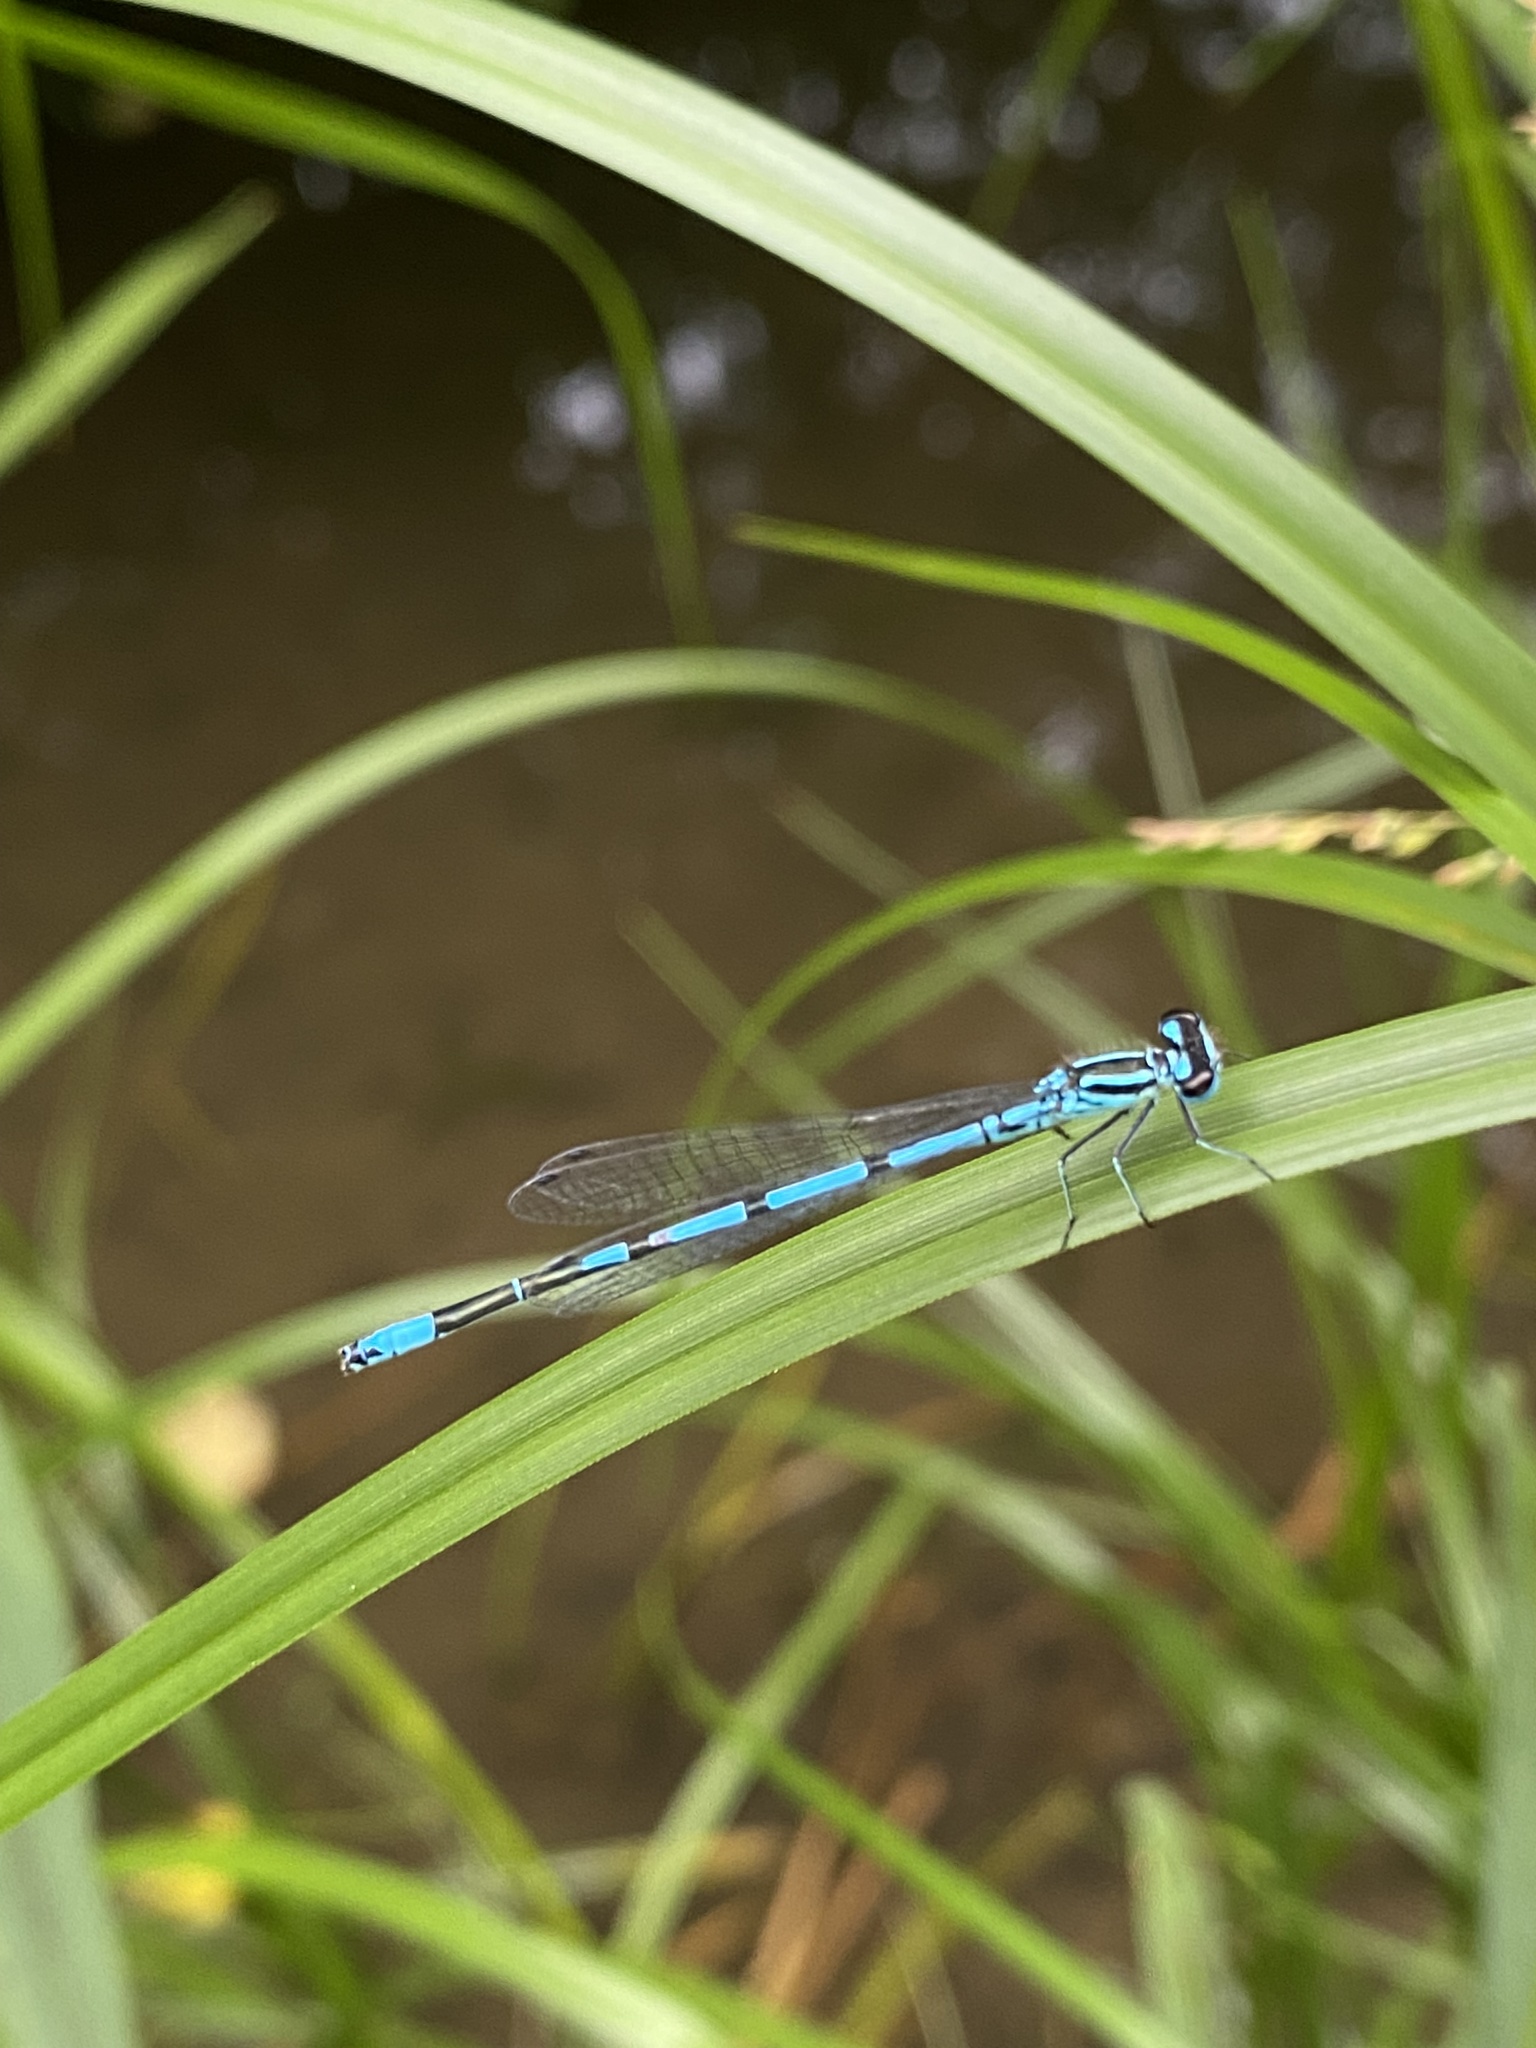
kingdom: Animalia
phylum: Arthropoda
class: Insecta
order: Odonata
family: Coenagrionidae
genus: Coenagrion
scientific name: Coenagrion puella
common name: Azure damselfly
